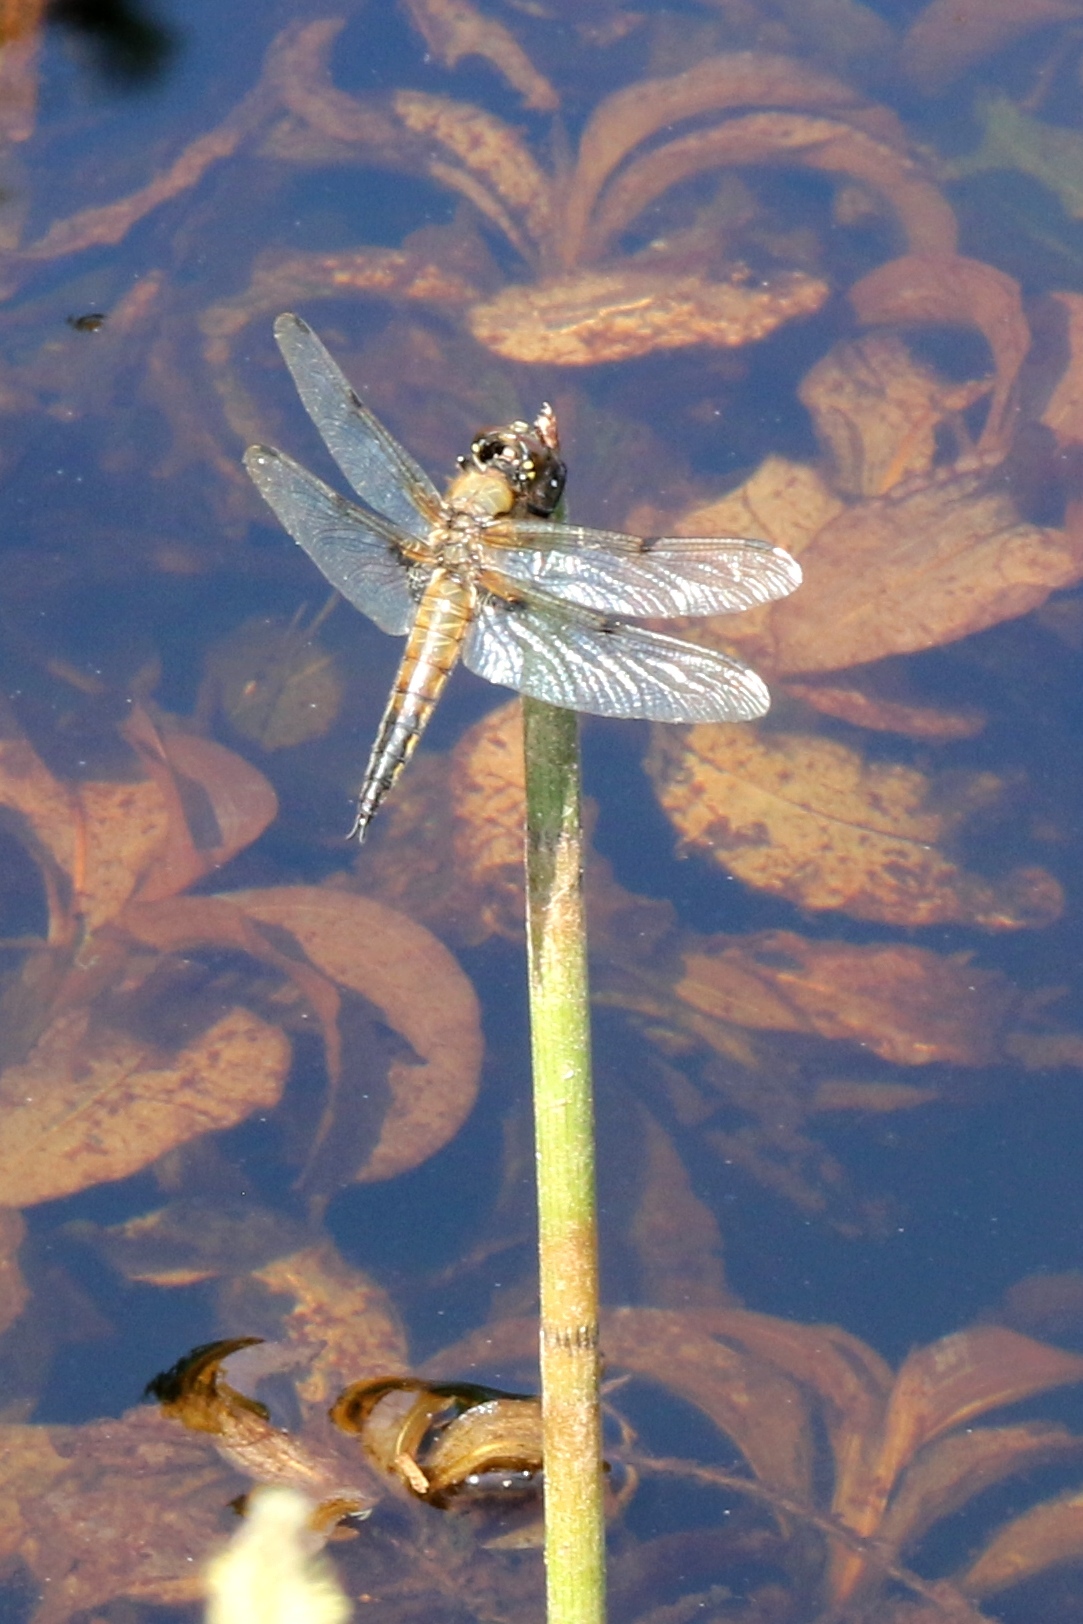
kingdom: Animalia
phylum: Arthropoda
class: Insecta
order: Odonata
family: Libellulidae
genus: Libellula
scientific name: Libellula quadrimaculata
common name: Four-spotted chaser
